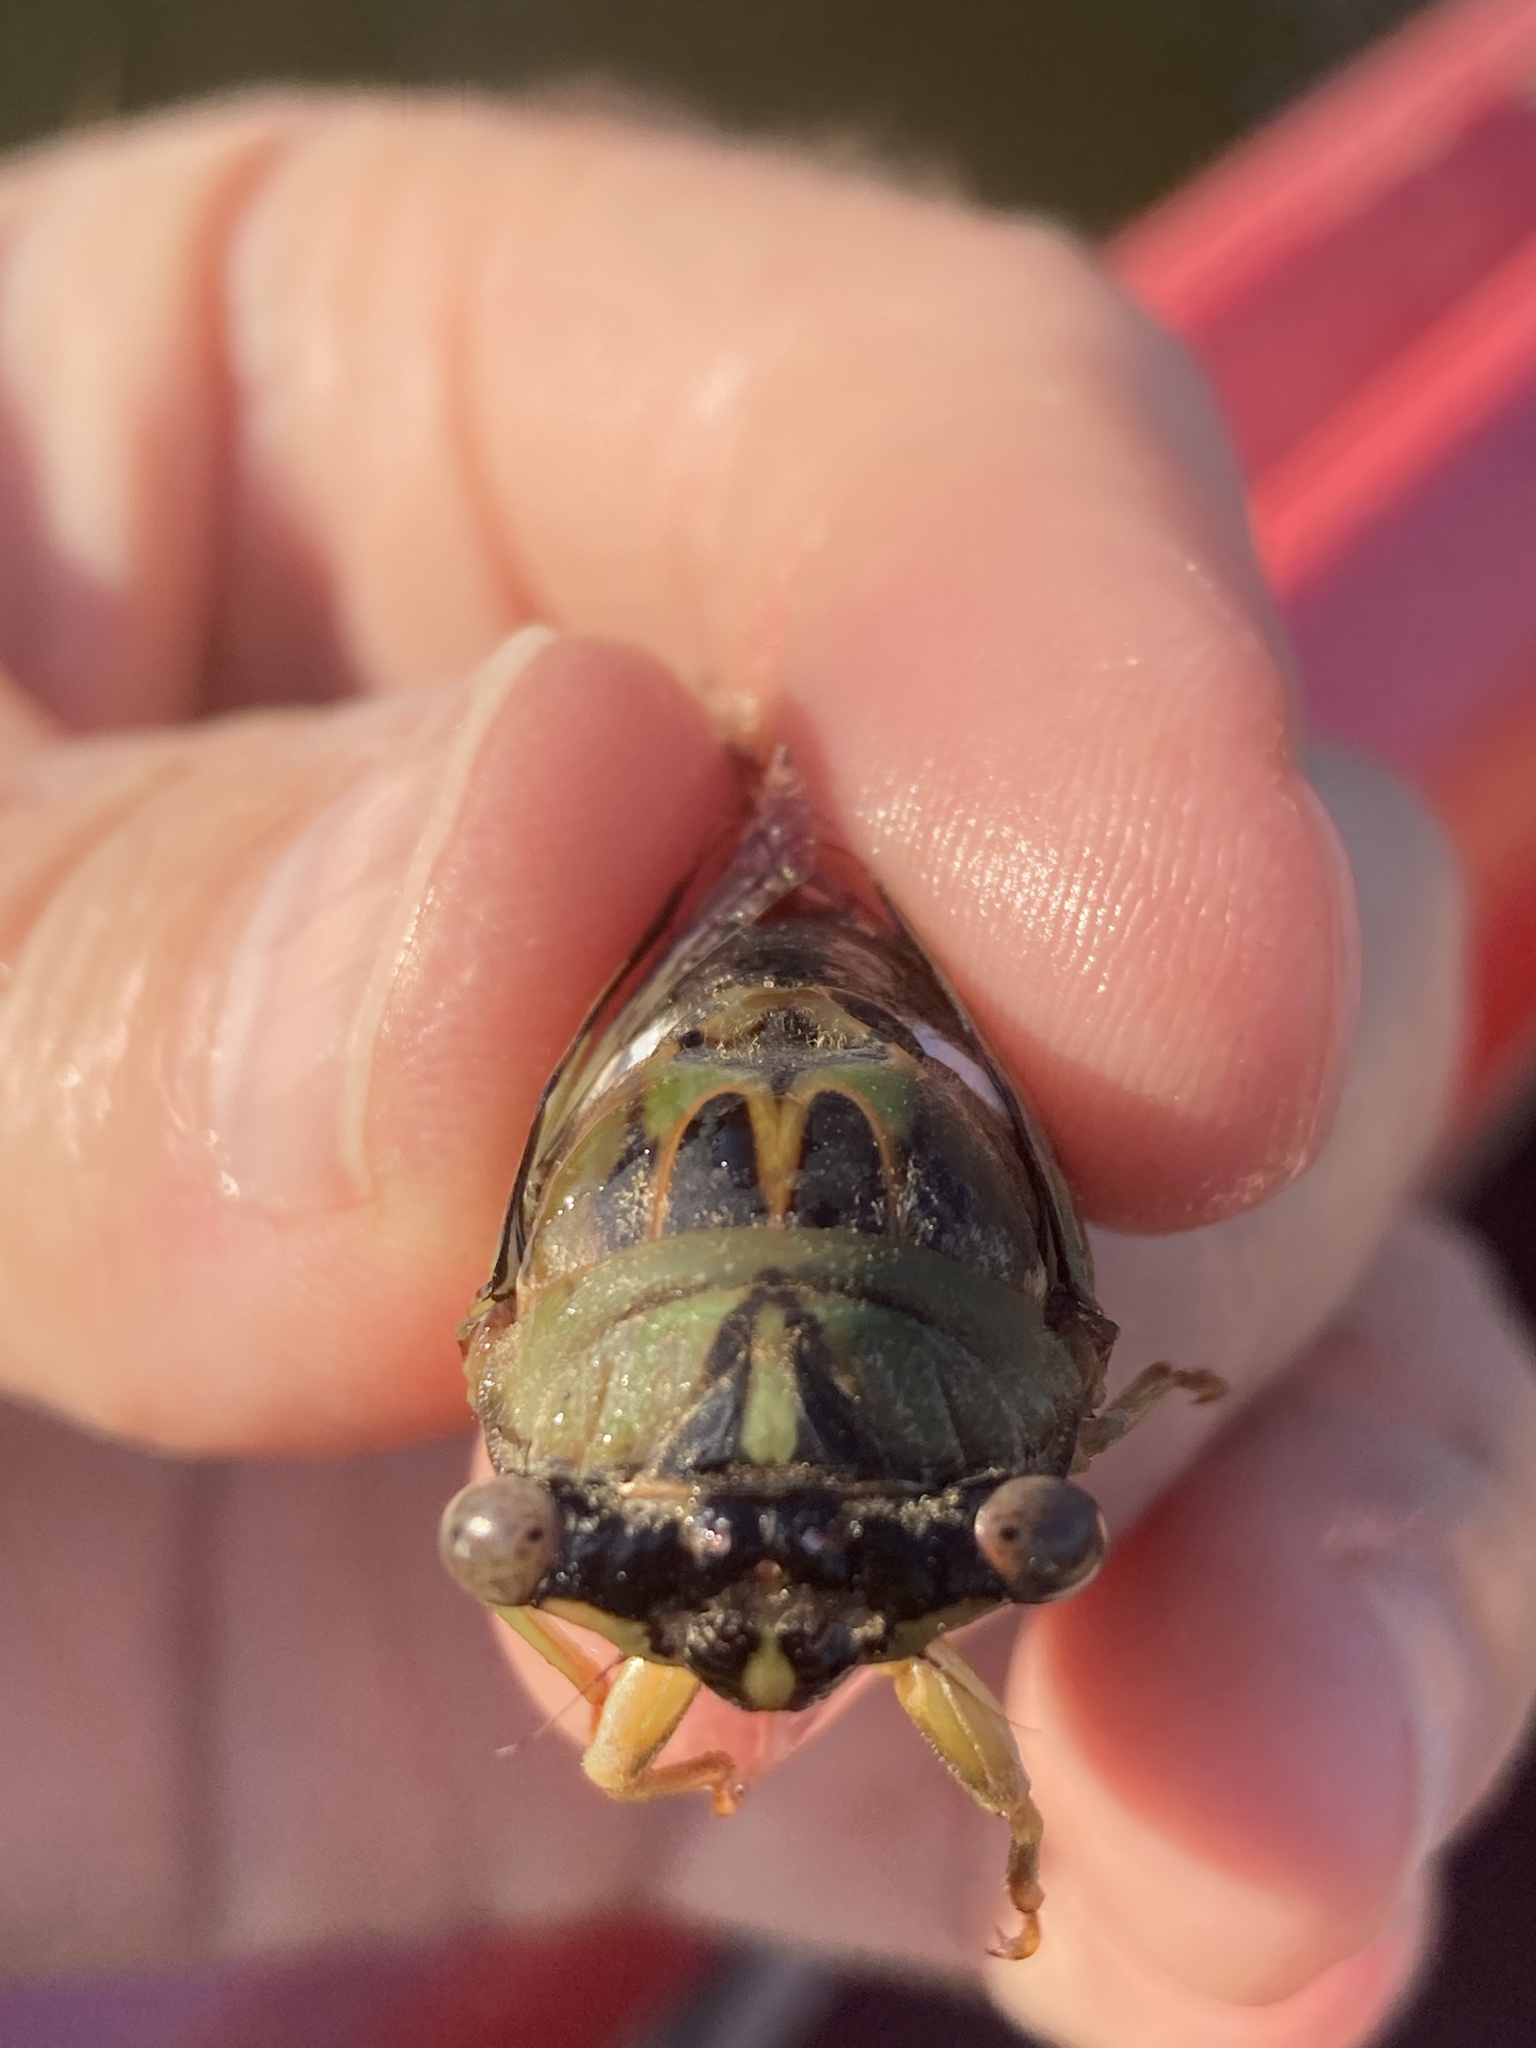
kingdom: Animalia
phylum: Arthropoda
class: Insecta
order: Hemiptera
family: Cicadidae
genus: Neotibicen
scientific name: Neotibicen pruinosus
